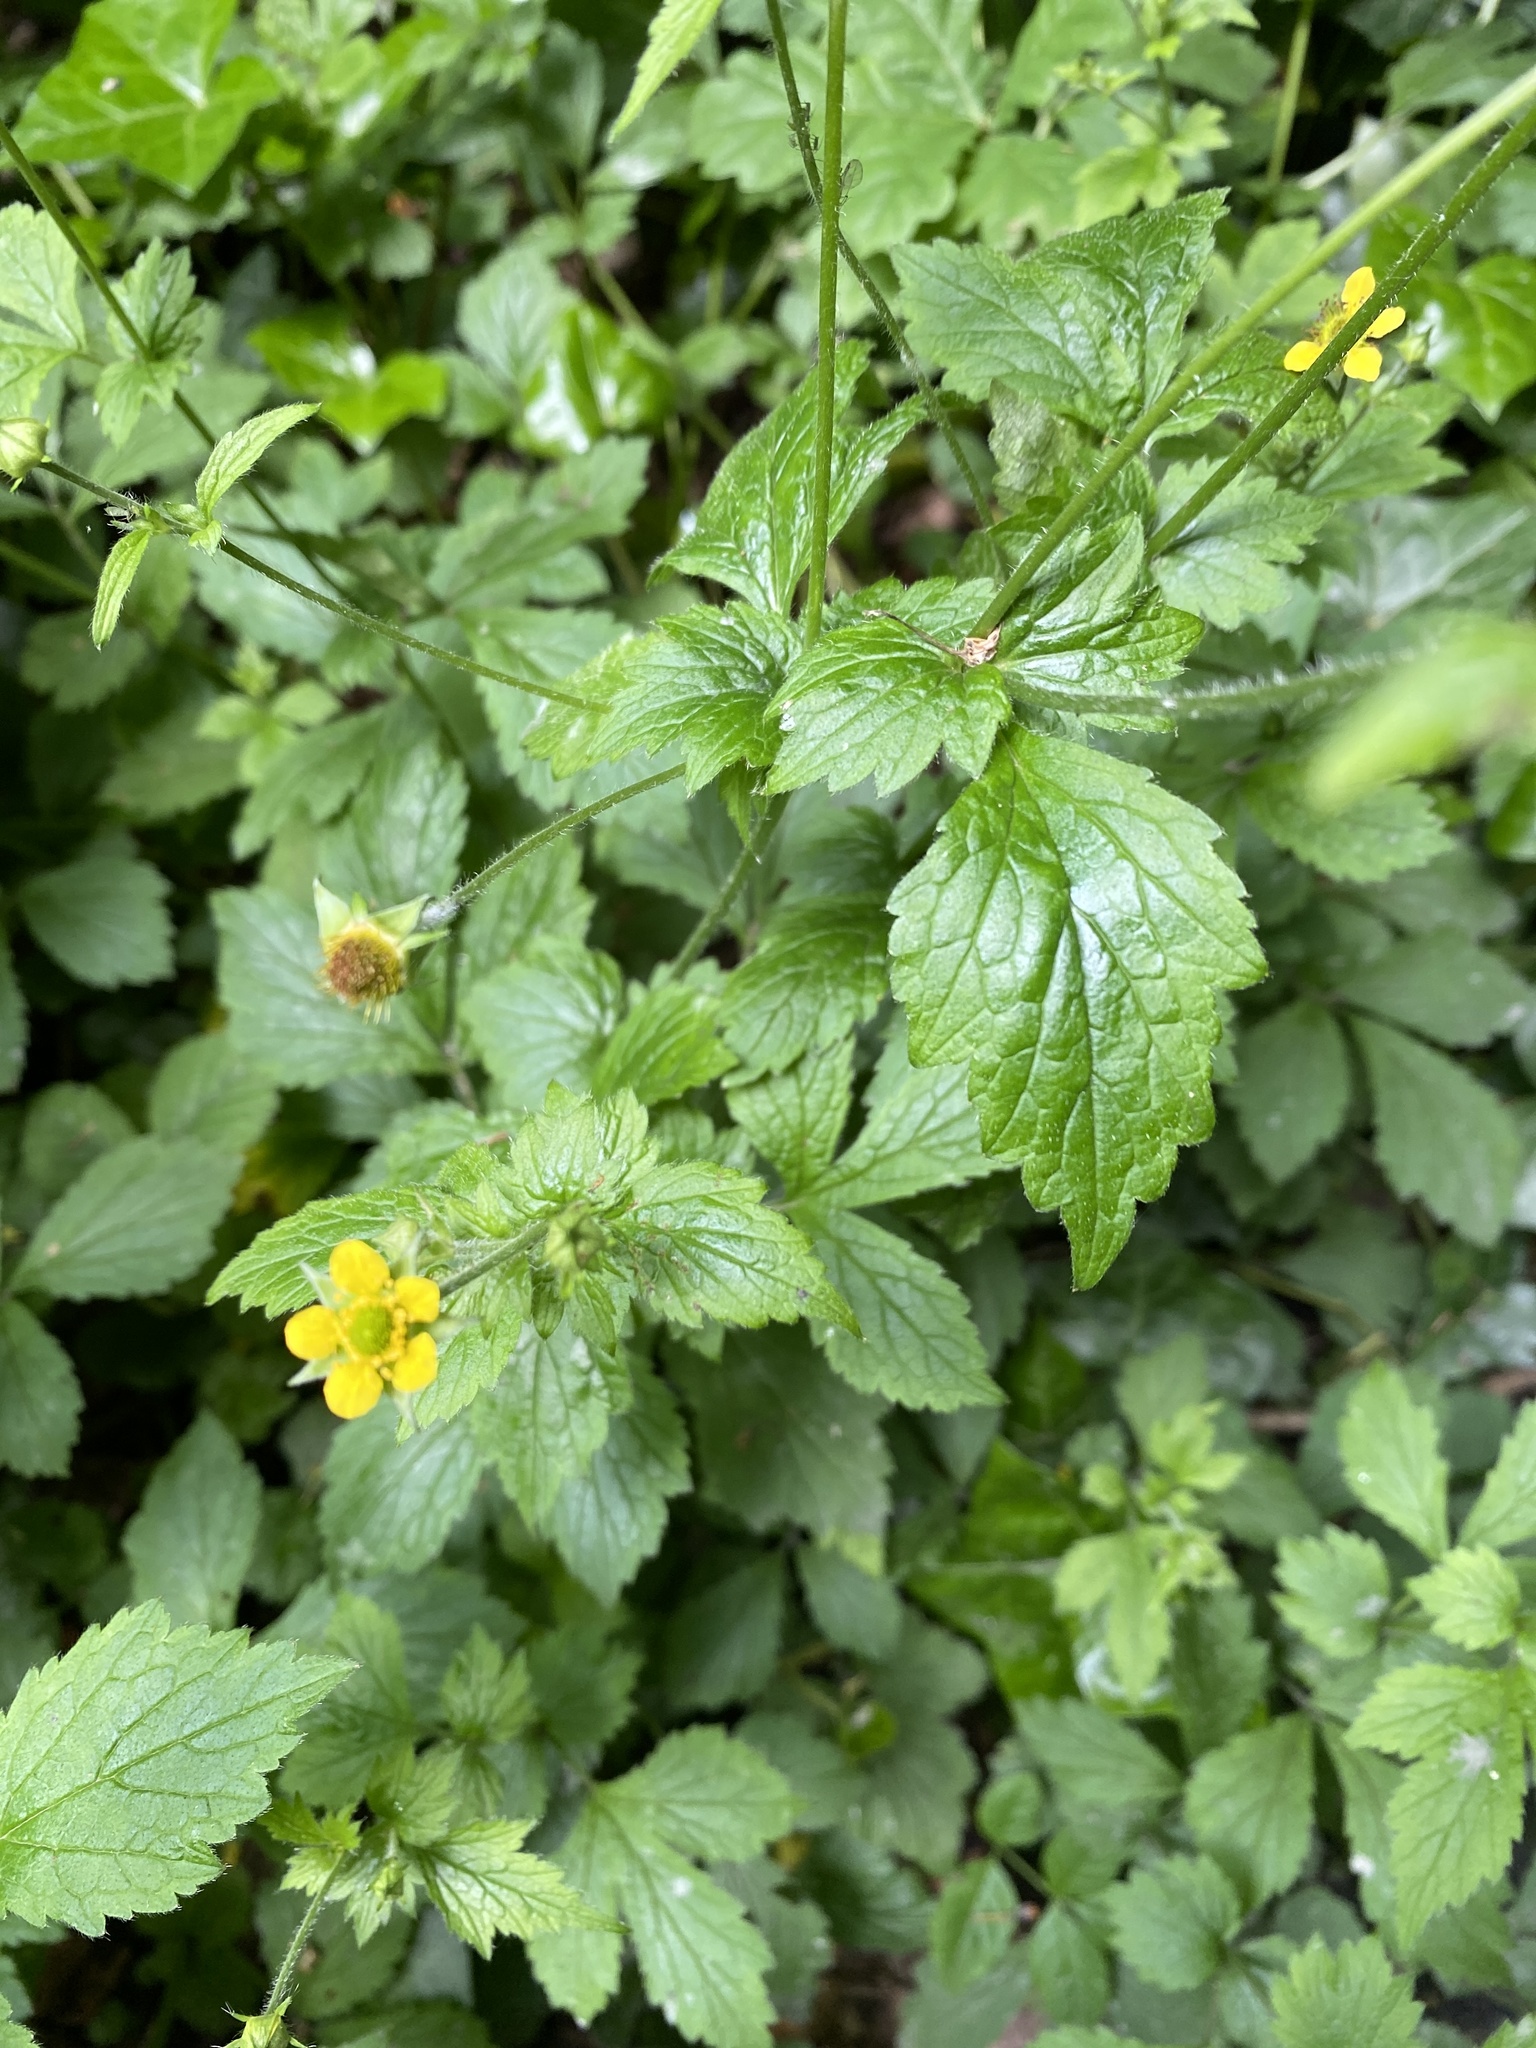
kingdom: Plantae
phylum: Tracheophyta
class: Magnoliopsida
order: Rosales
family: Rosaceae
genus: Geum
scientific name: Geum urbanum
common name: Wood avens
